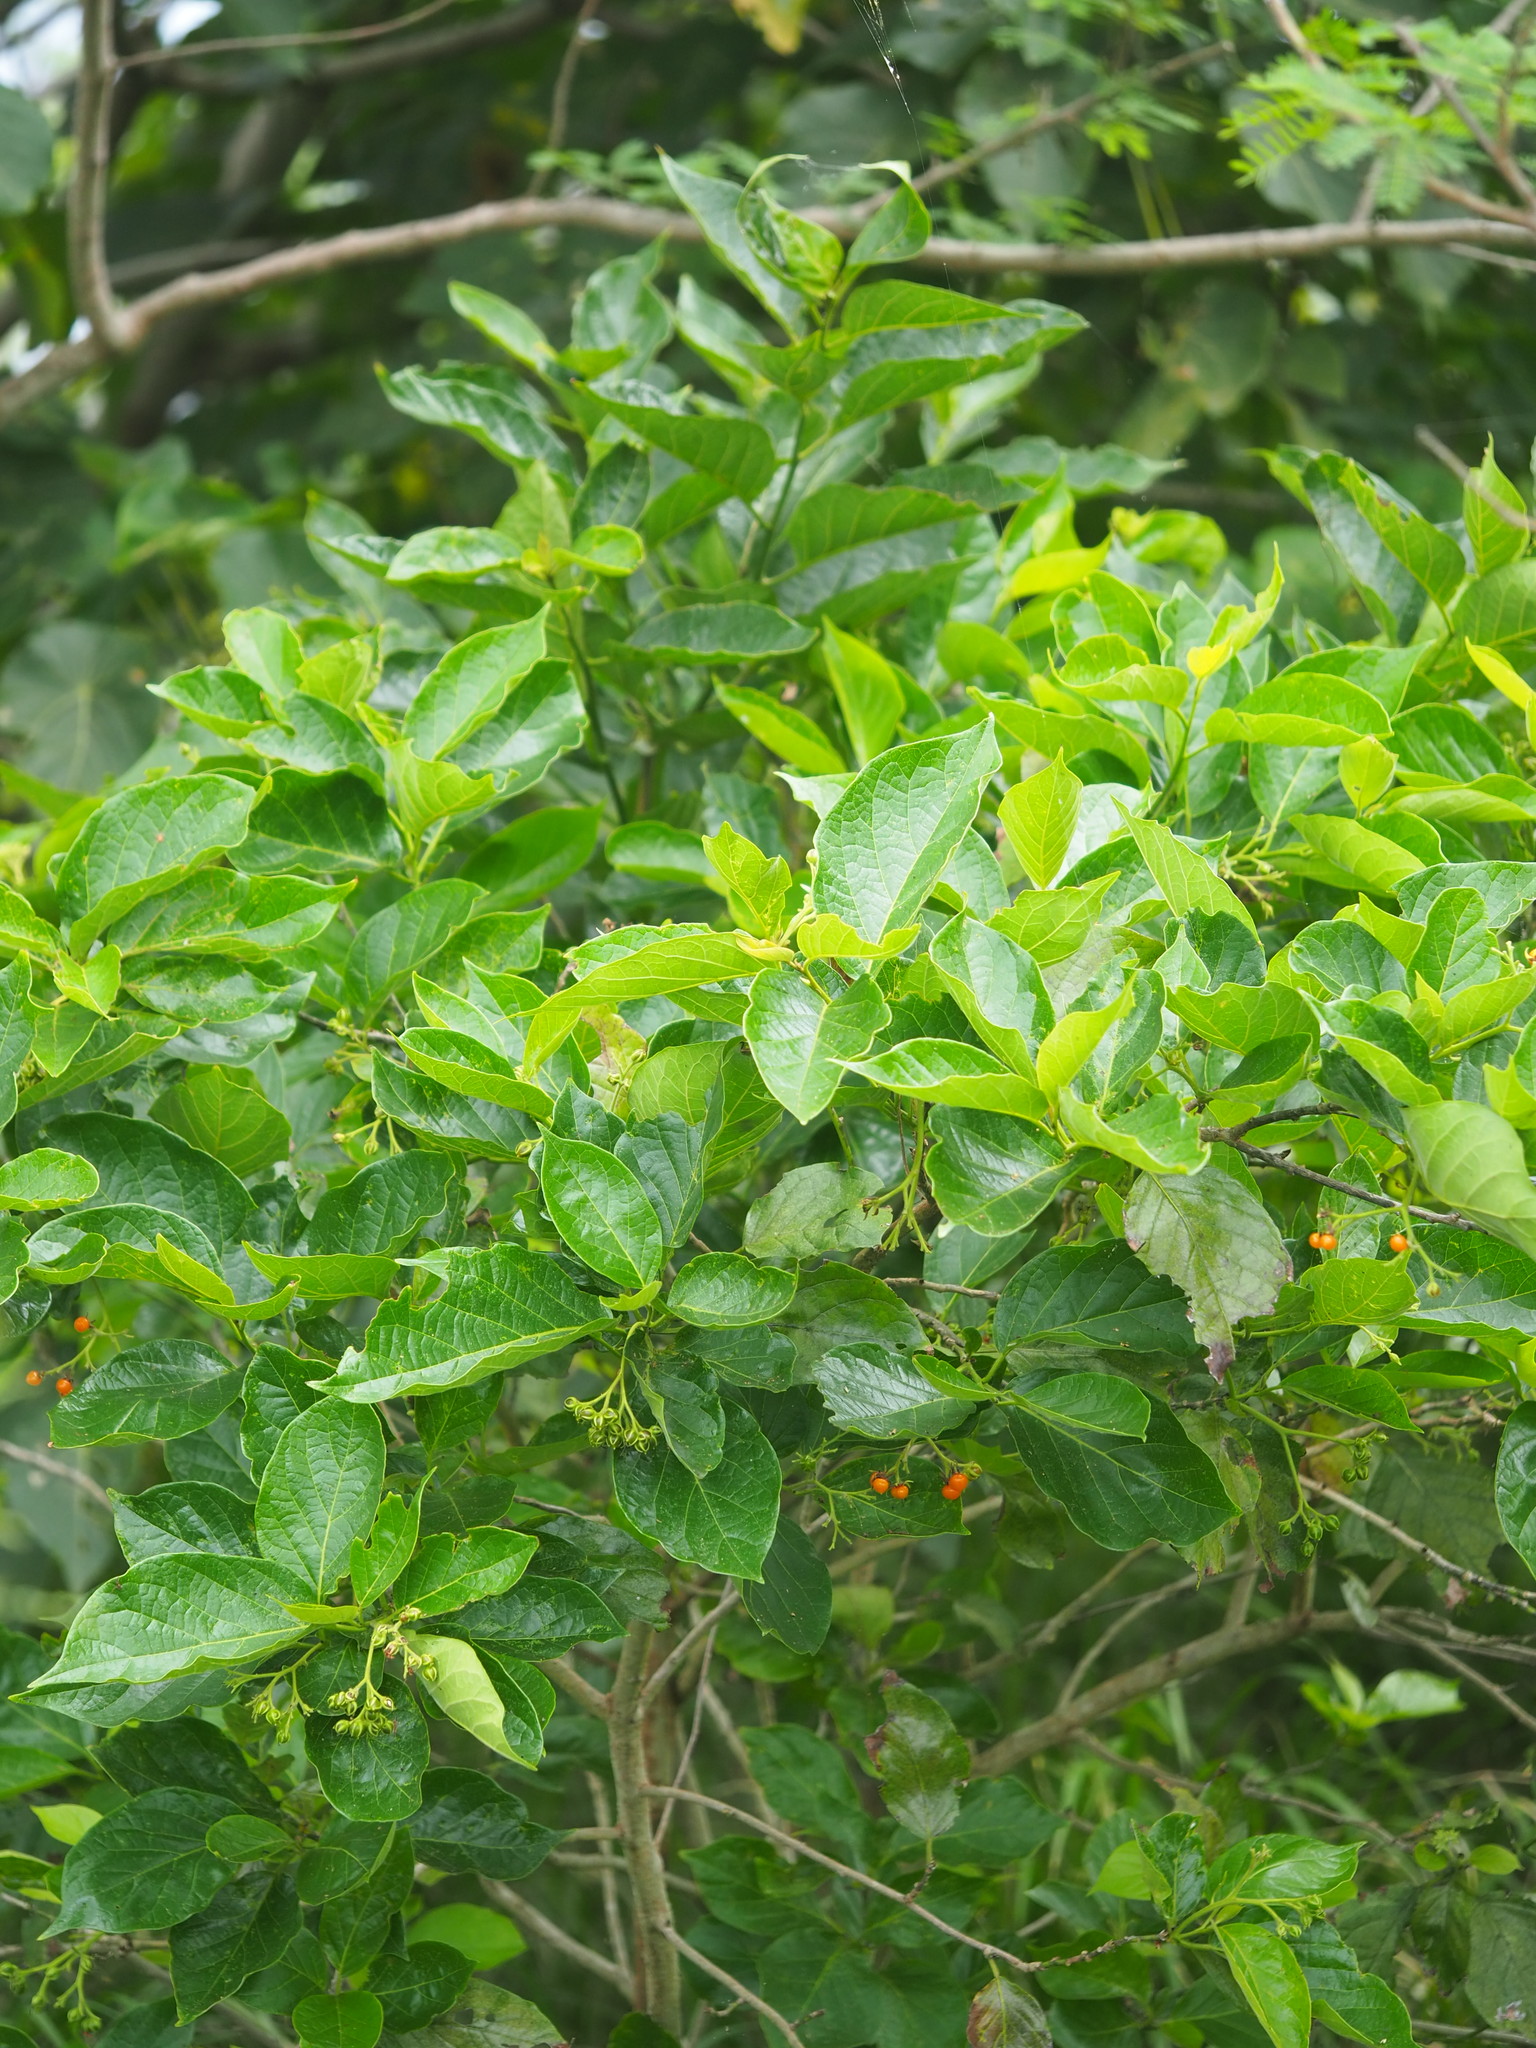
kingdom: Plantae
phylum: Tracheophyta
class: Magnoliopsida
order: Boraginales
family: Ehretiaceae
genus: Ehretia
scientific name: Ehretia resinosa
